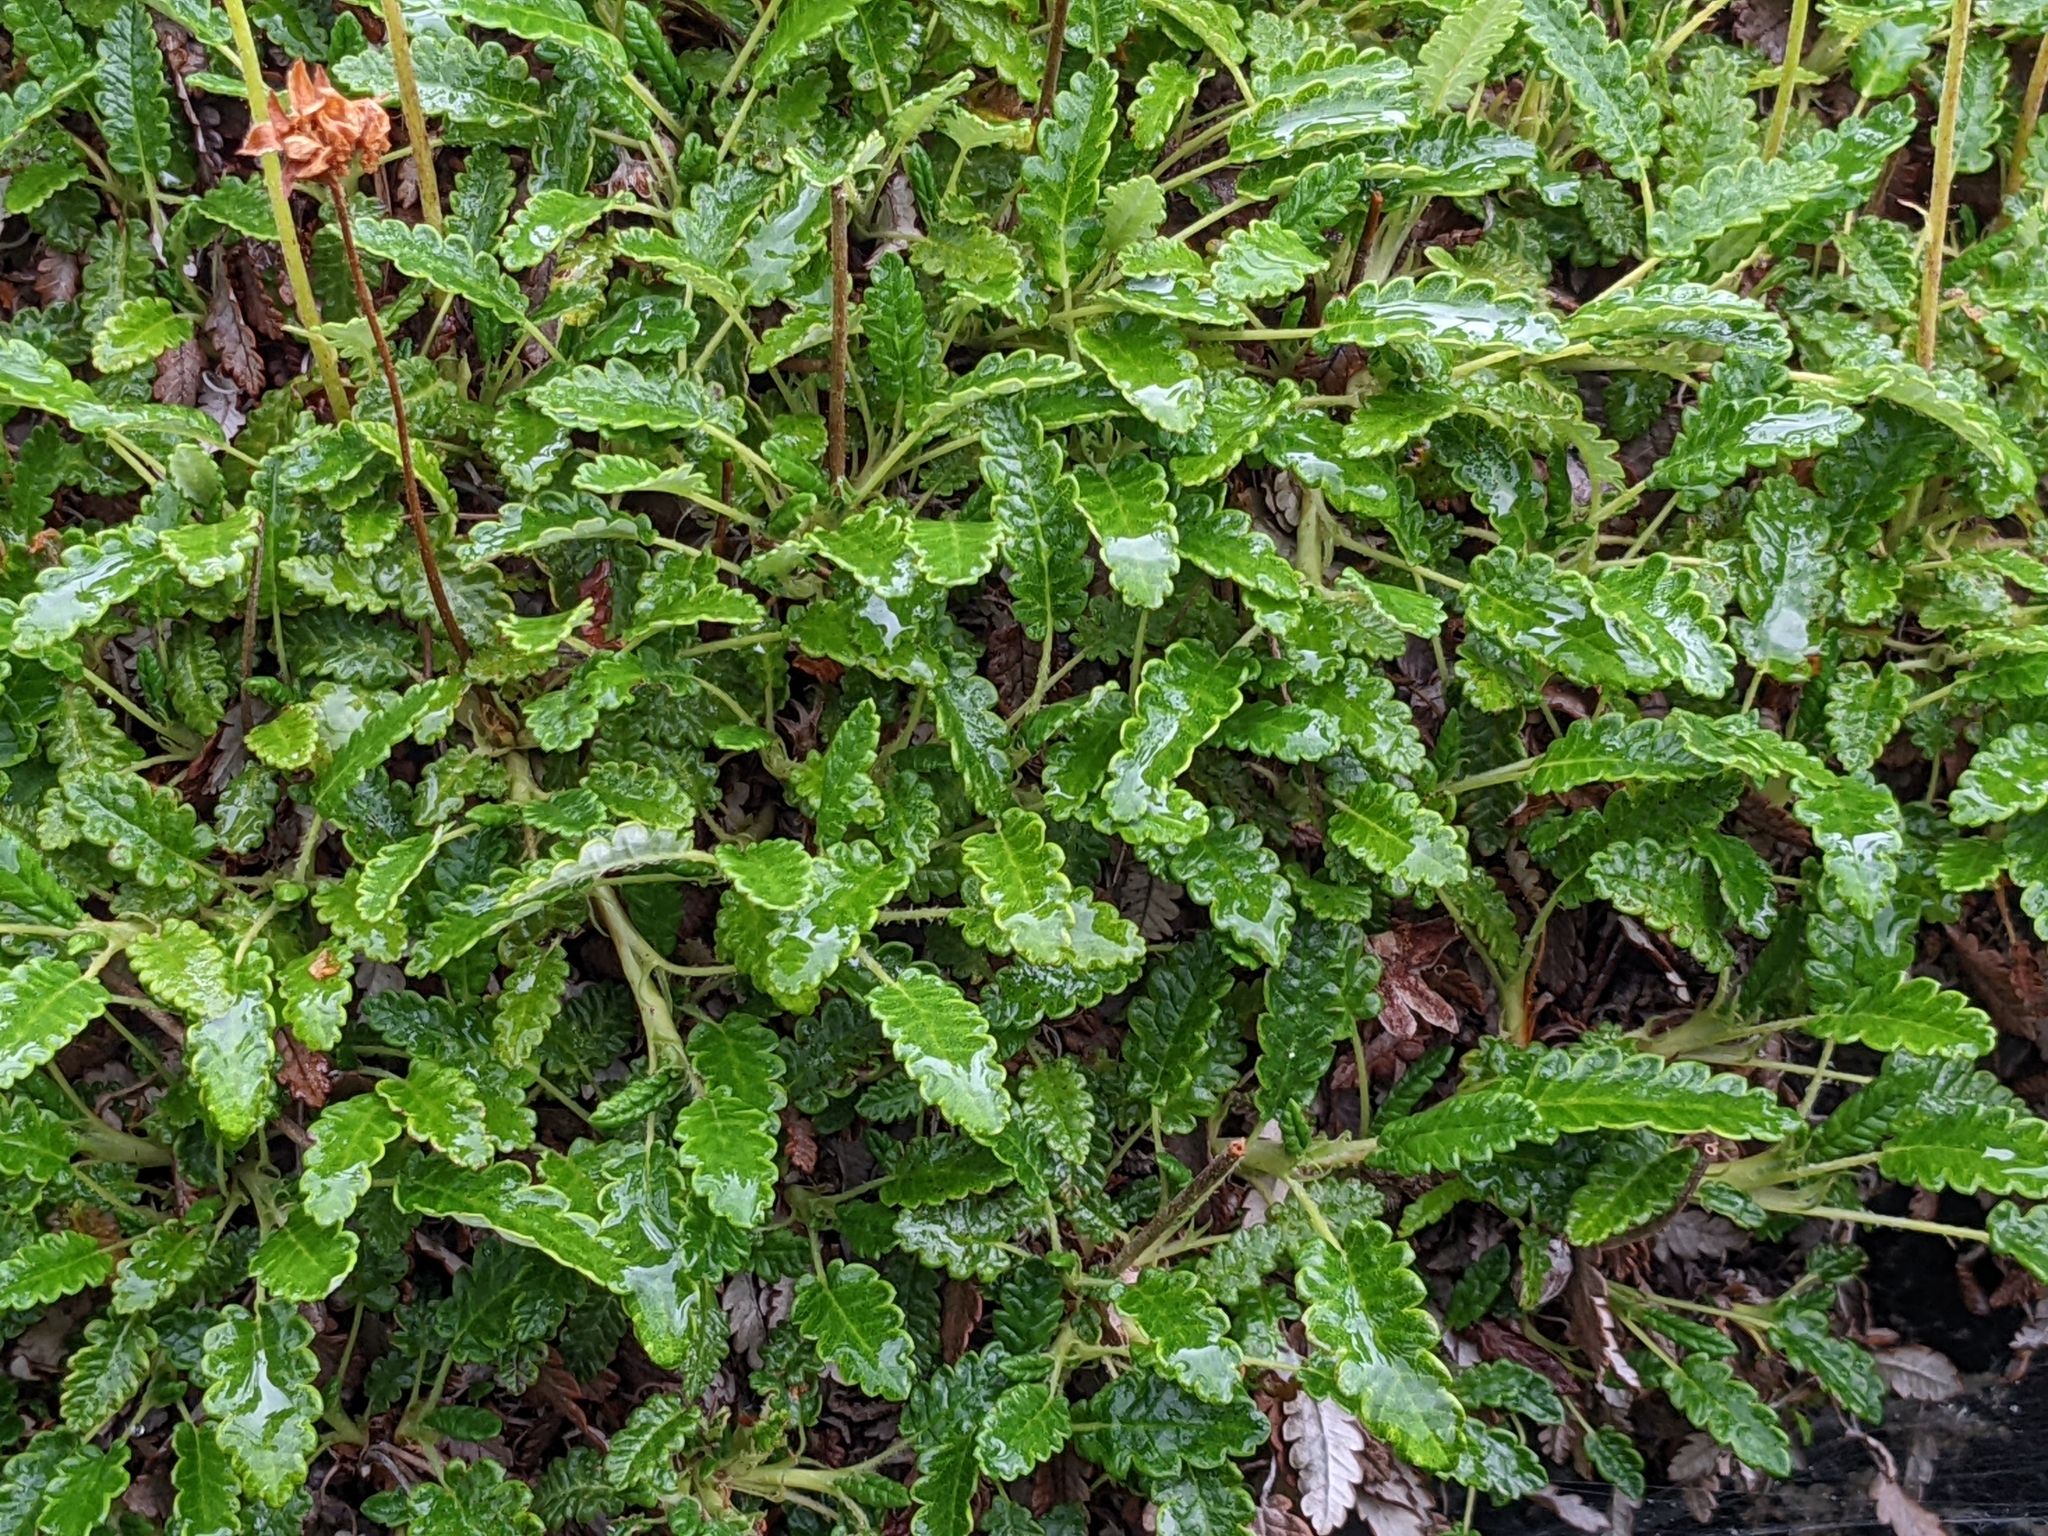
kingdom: Plantae
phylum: Tracheophyta
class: Magnoliopsida
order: Rosales
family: Rosaceae
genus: Dryas
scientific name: Dryas octopetala
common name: Eight-petal mountain-avens
